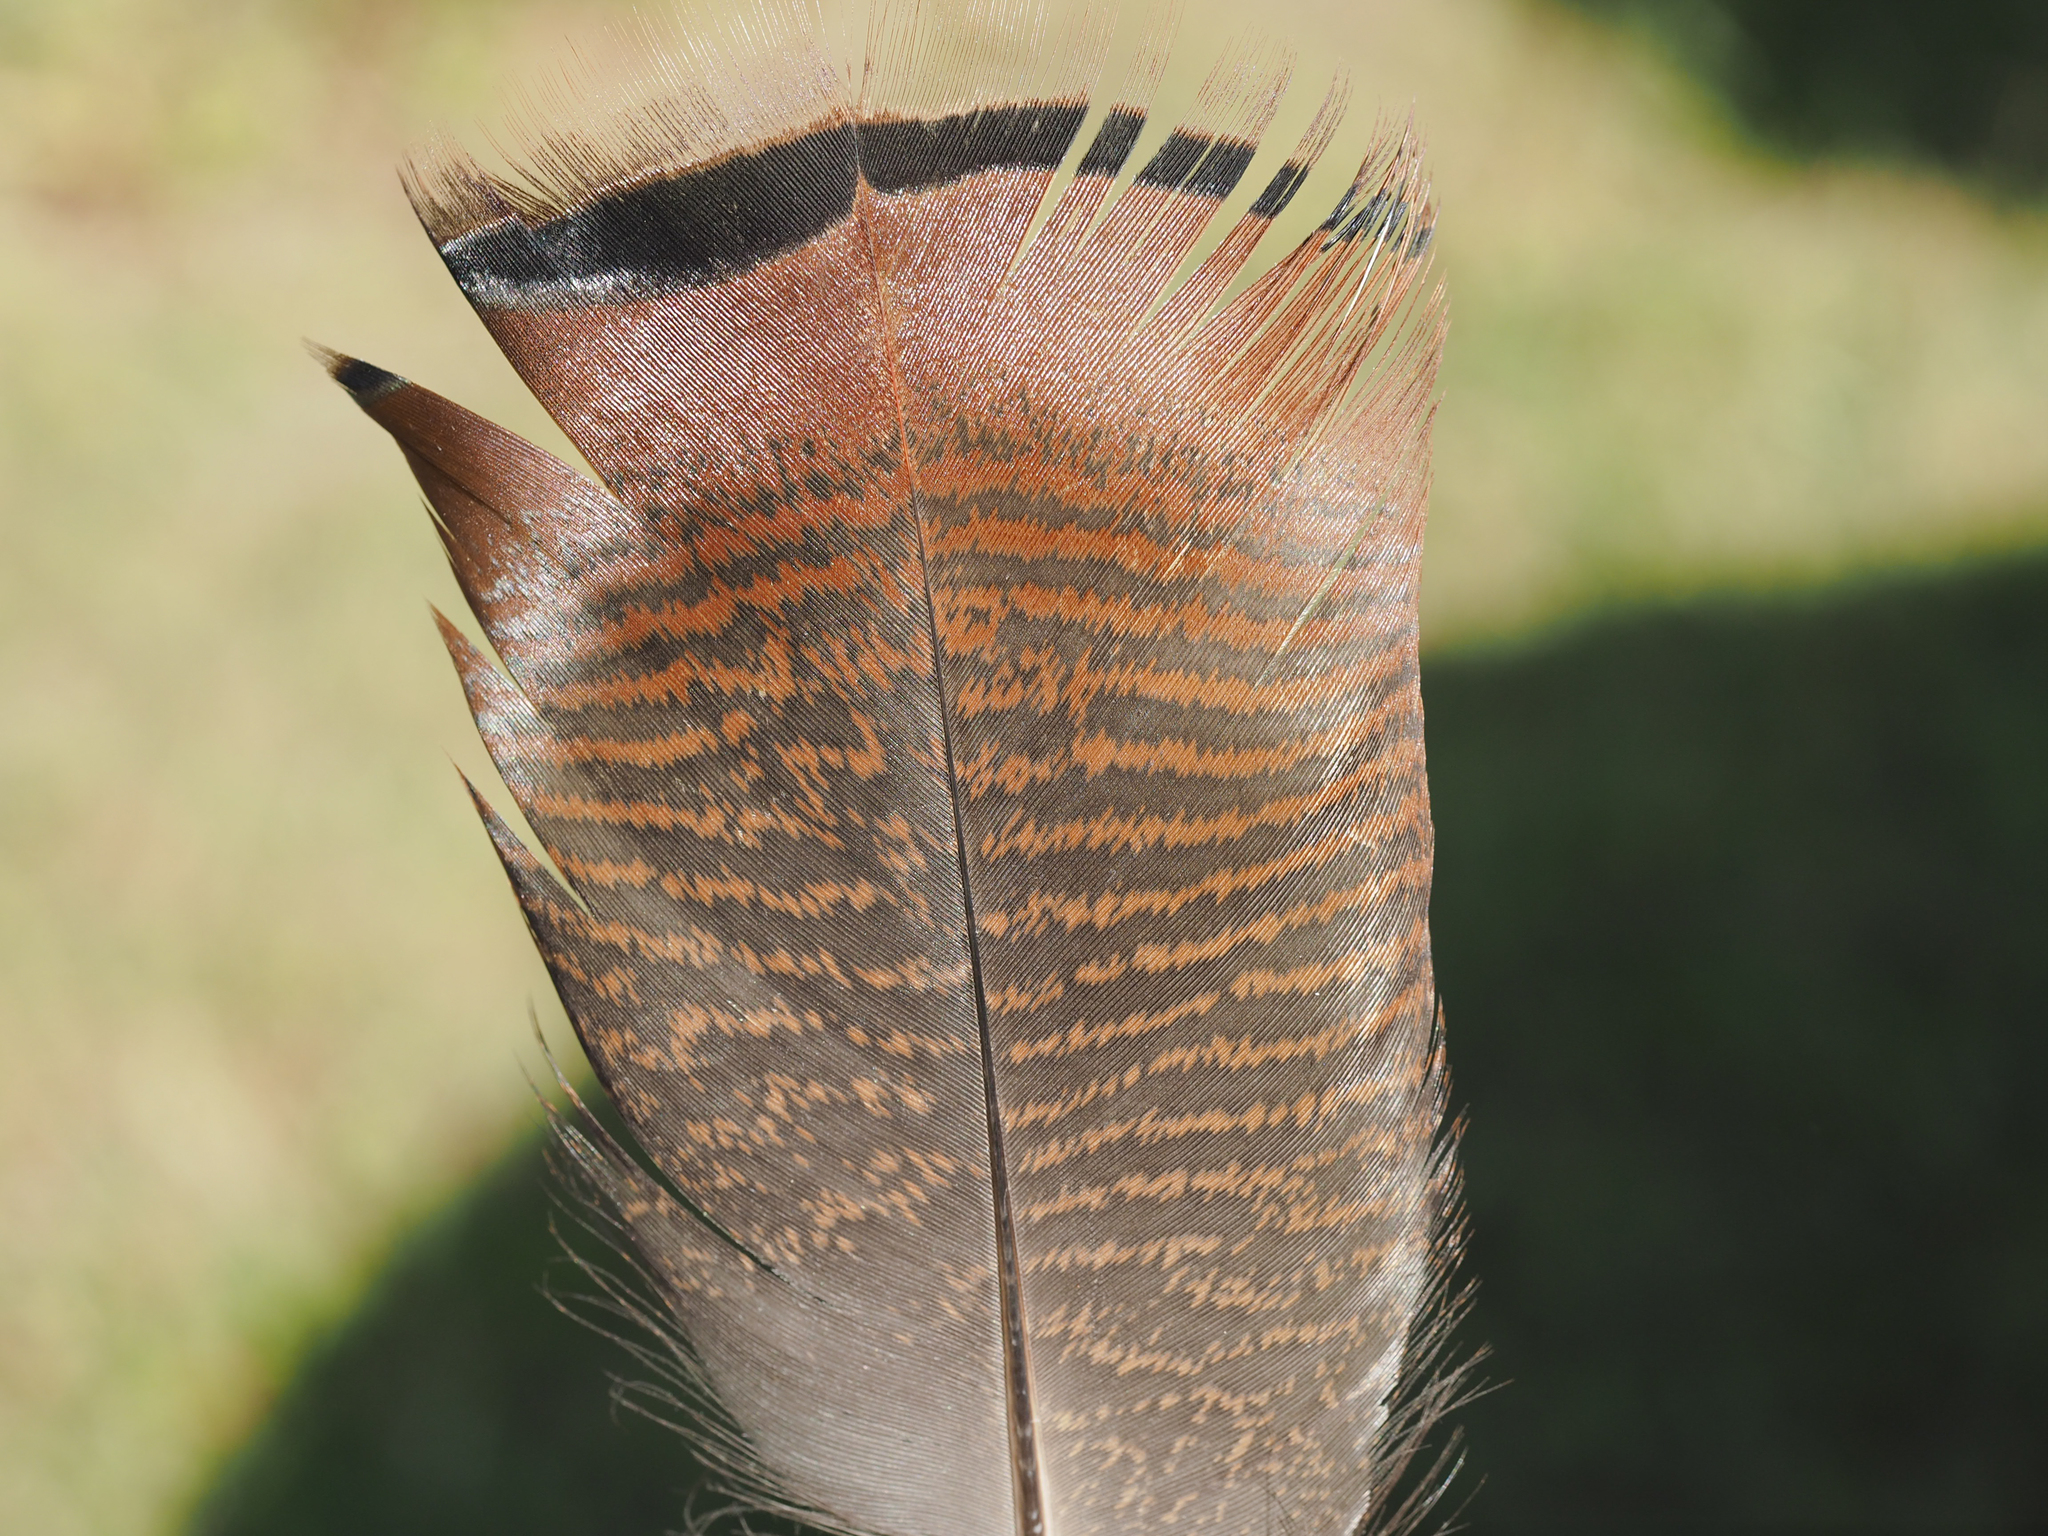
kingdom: Animalia
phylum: Chordata
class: Aves
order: Galliformes
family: Phasianidae
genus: Meleagris
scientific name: Meleagris gallopavo
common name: Wild turkey
